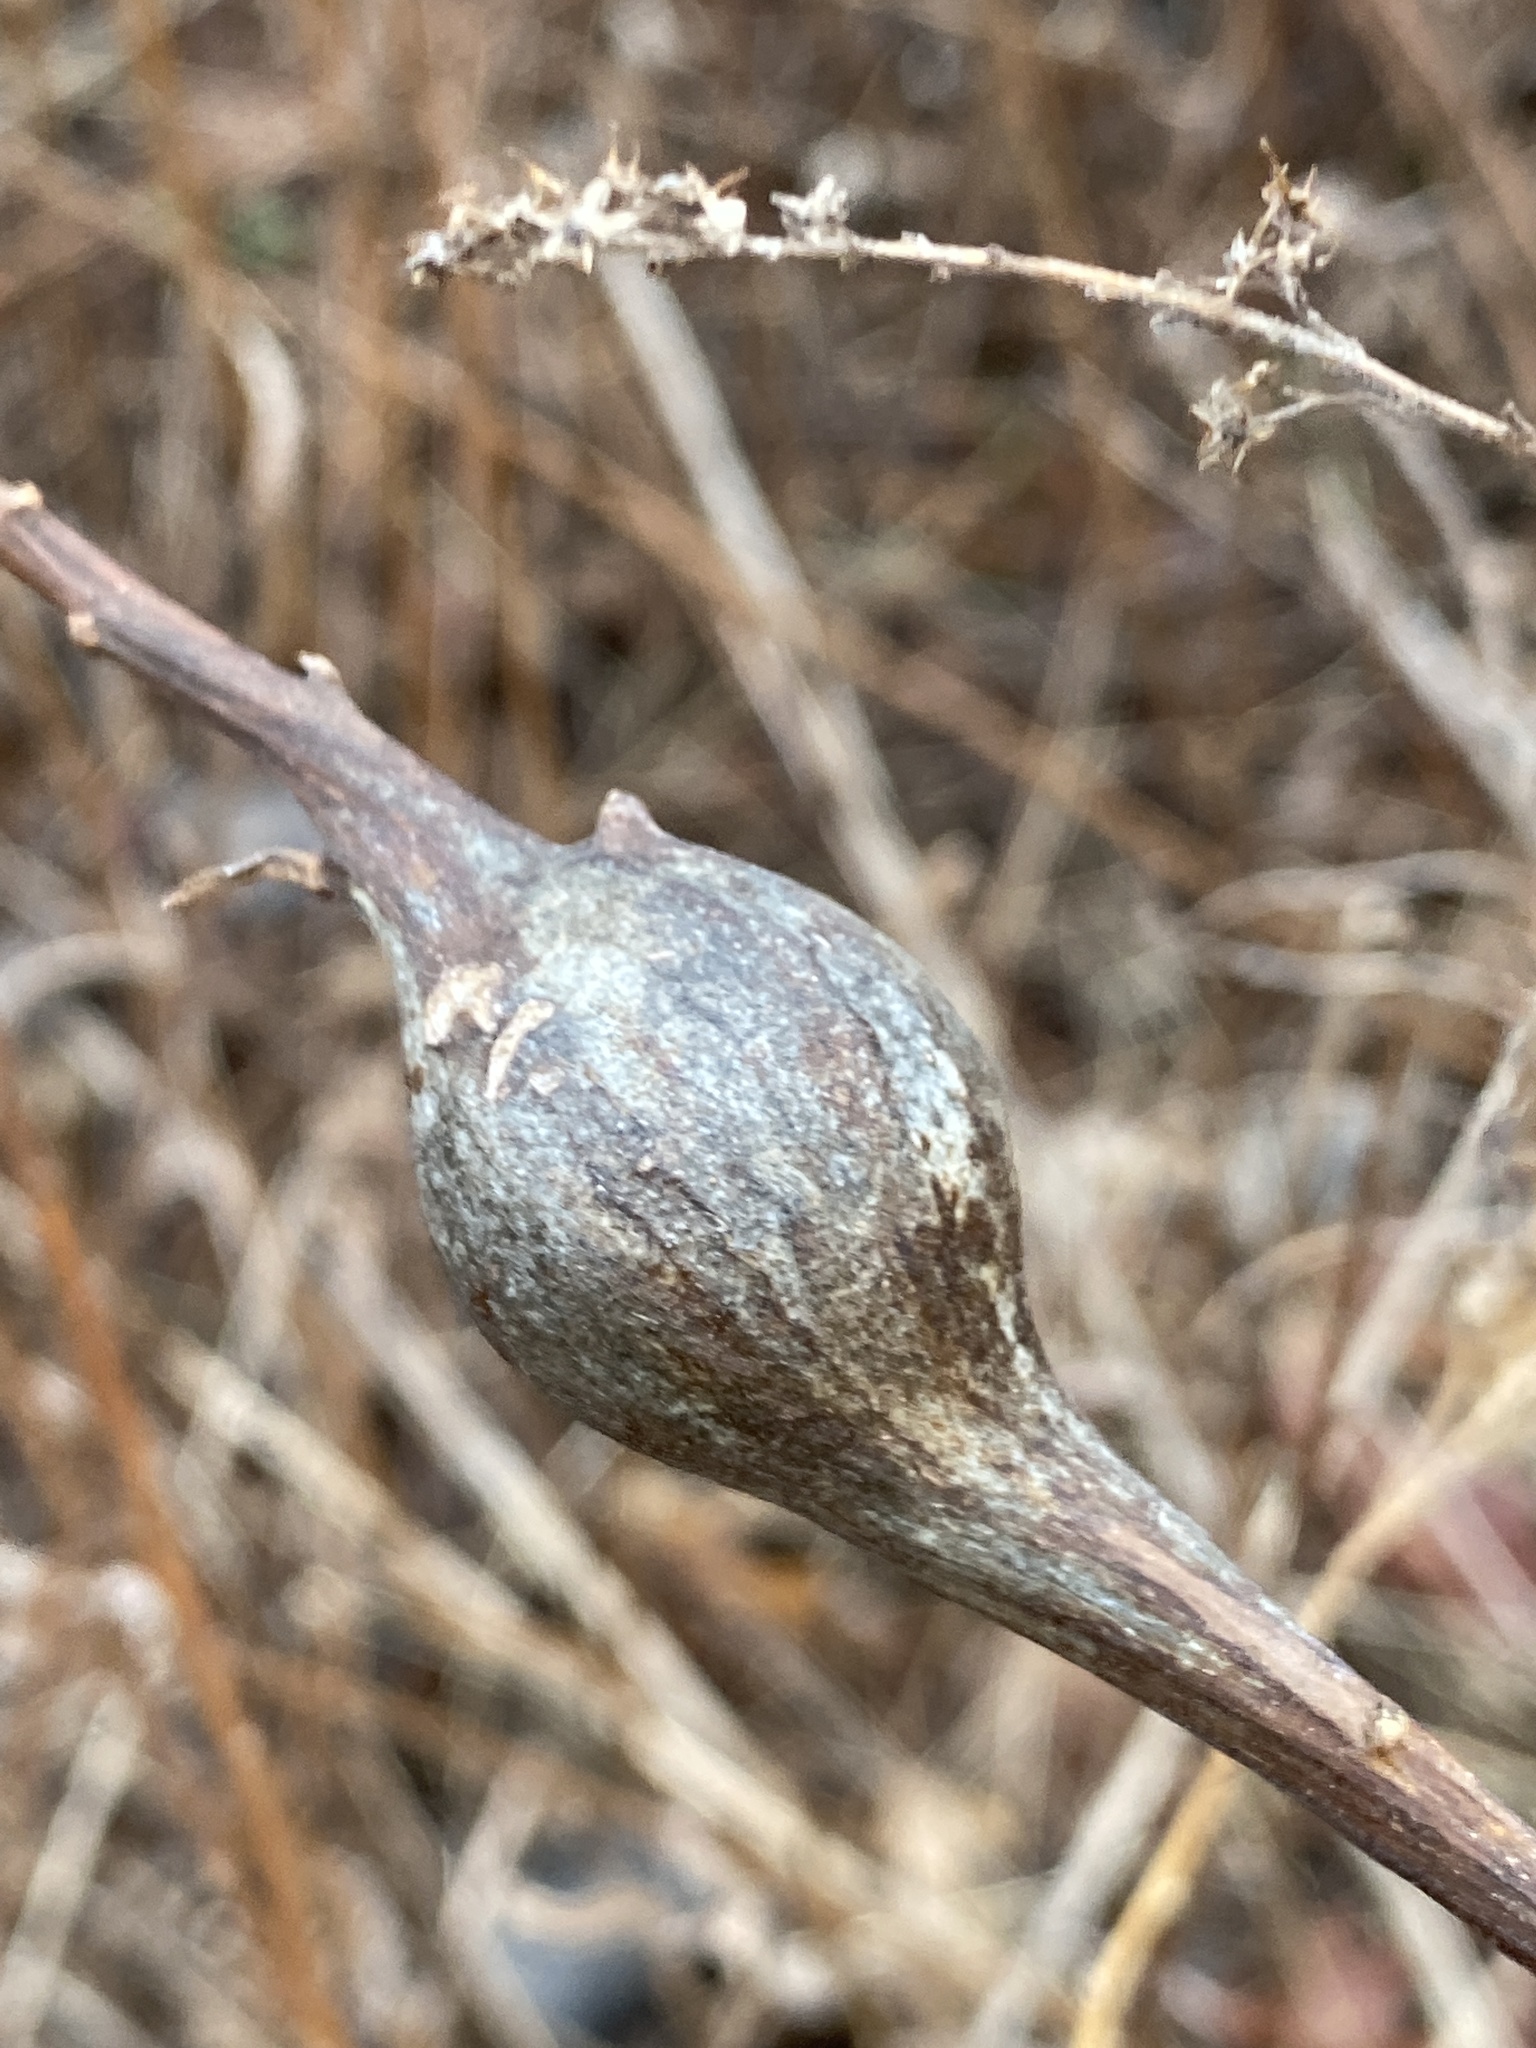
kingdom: Animalia
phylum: Arthropoda
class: Insecta
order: Diptera
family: Tephritidae
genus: Eurosta
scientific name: Eurosta solidaginis
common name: Goldenrod gall fly
